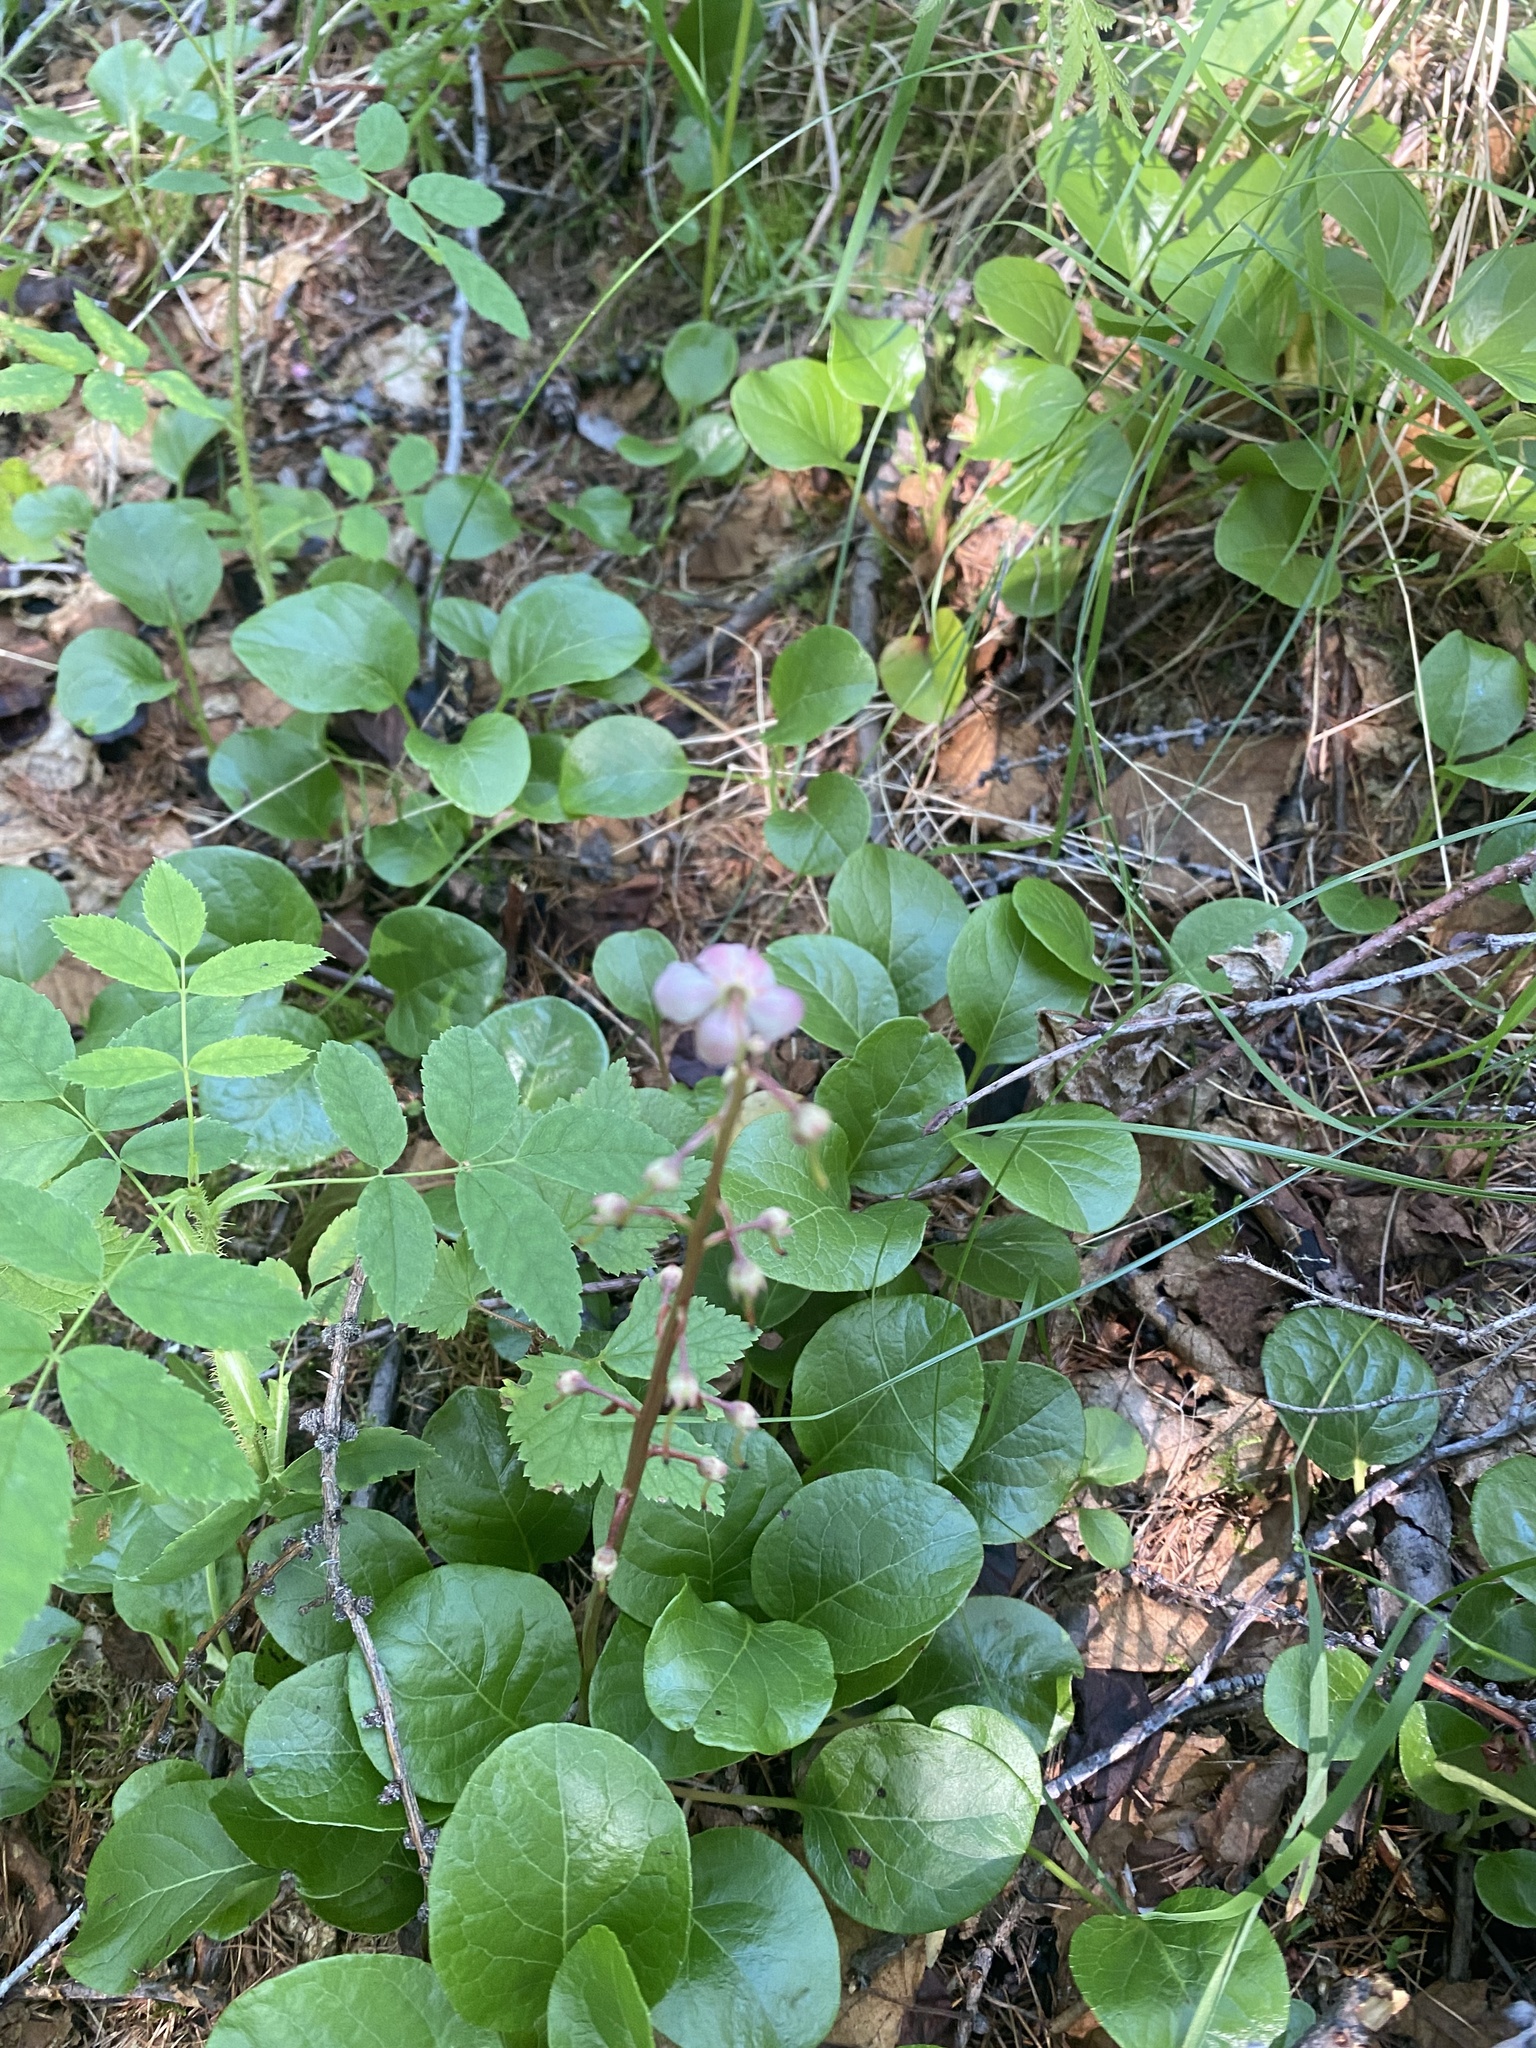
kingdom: Plantae
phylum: Tracheophyta
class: Magnoliopsida
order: Ericales
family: Ericaceae
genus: Pyrola
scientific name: Pyrola asarifolia
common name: Bog wintergreen
